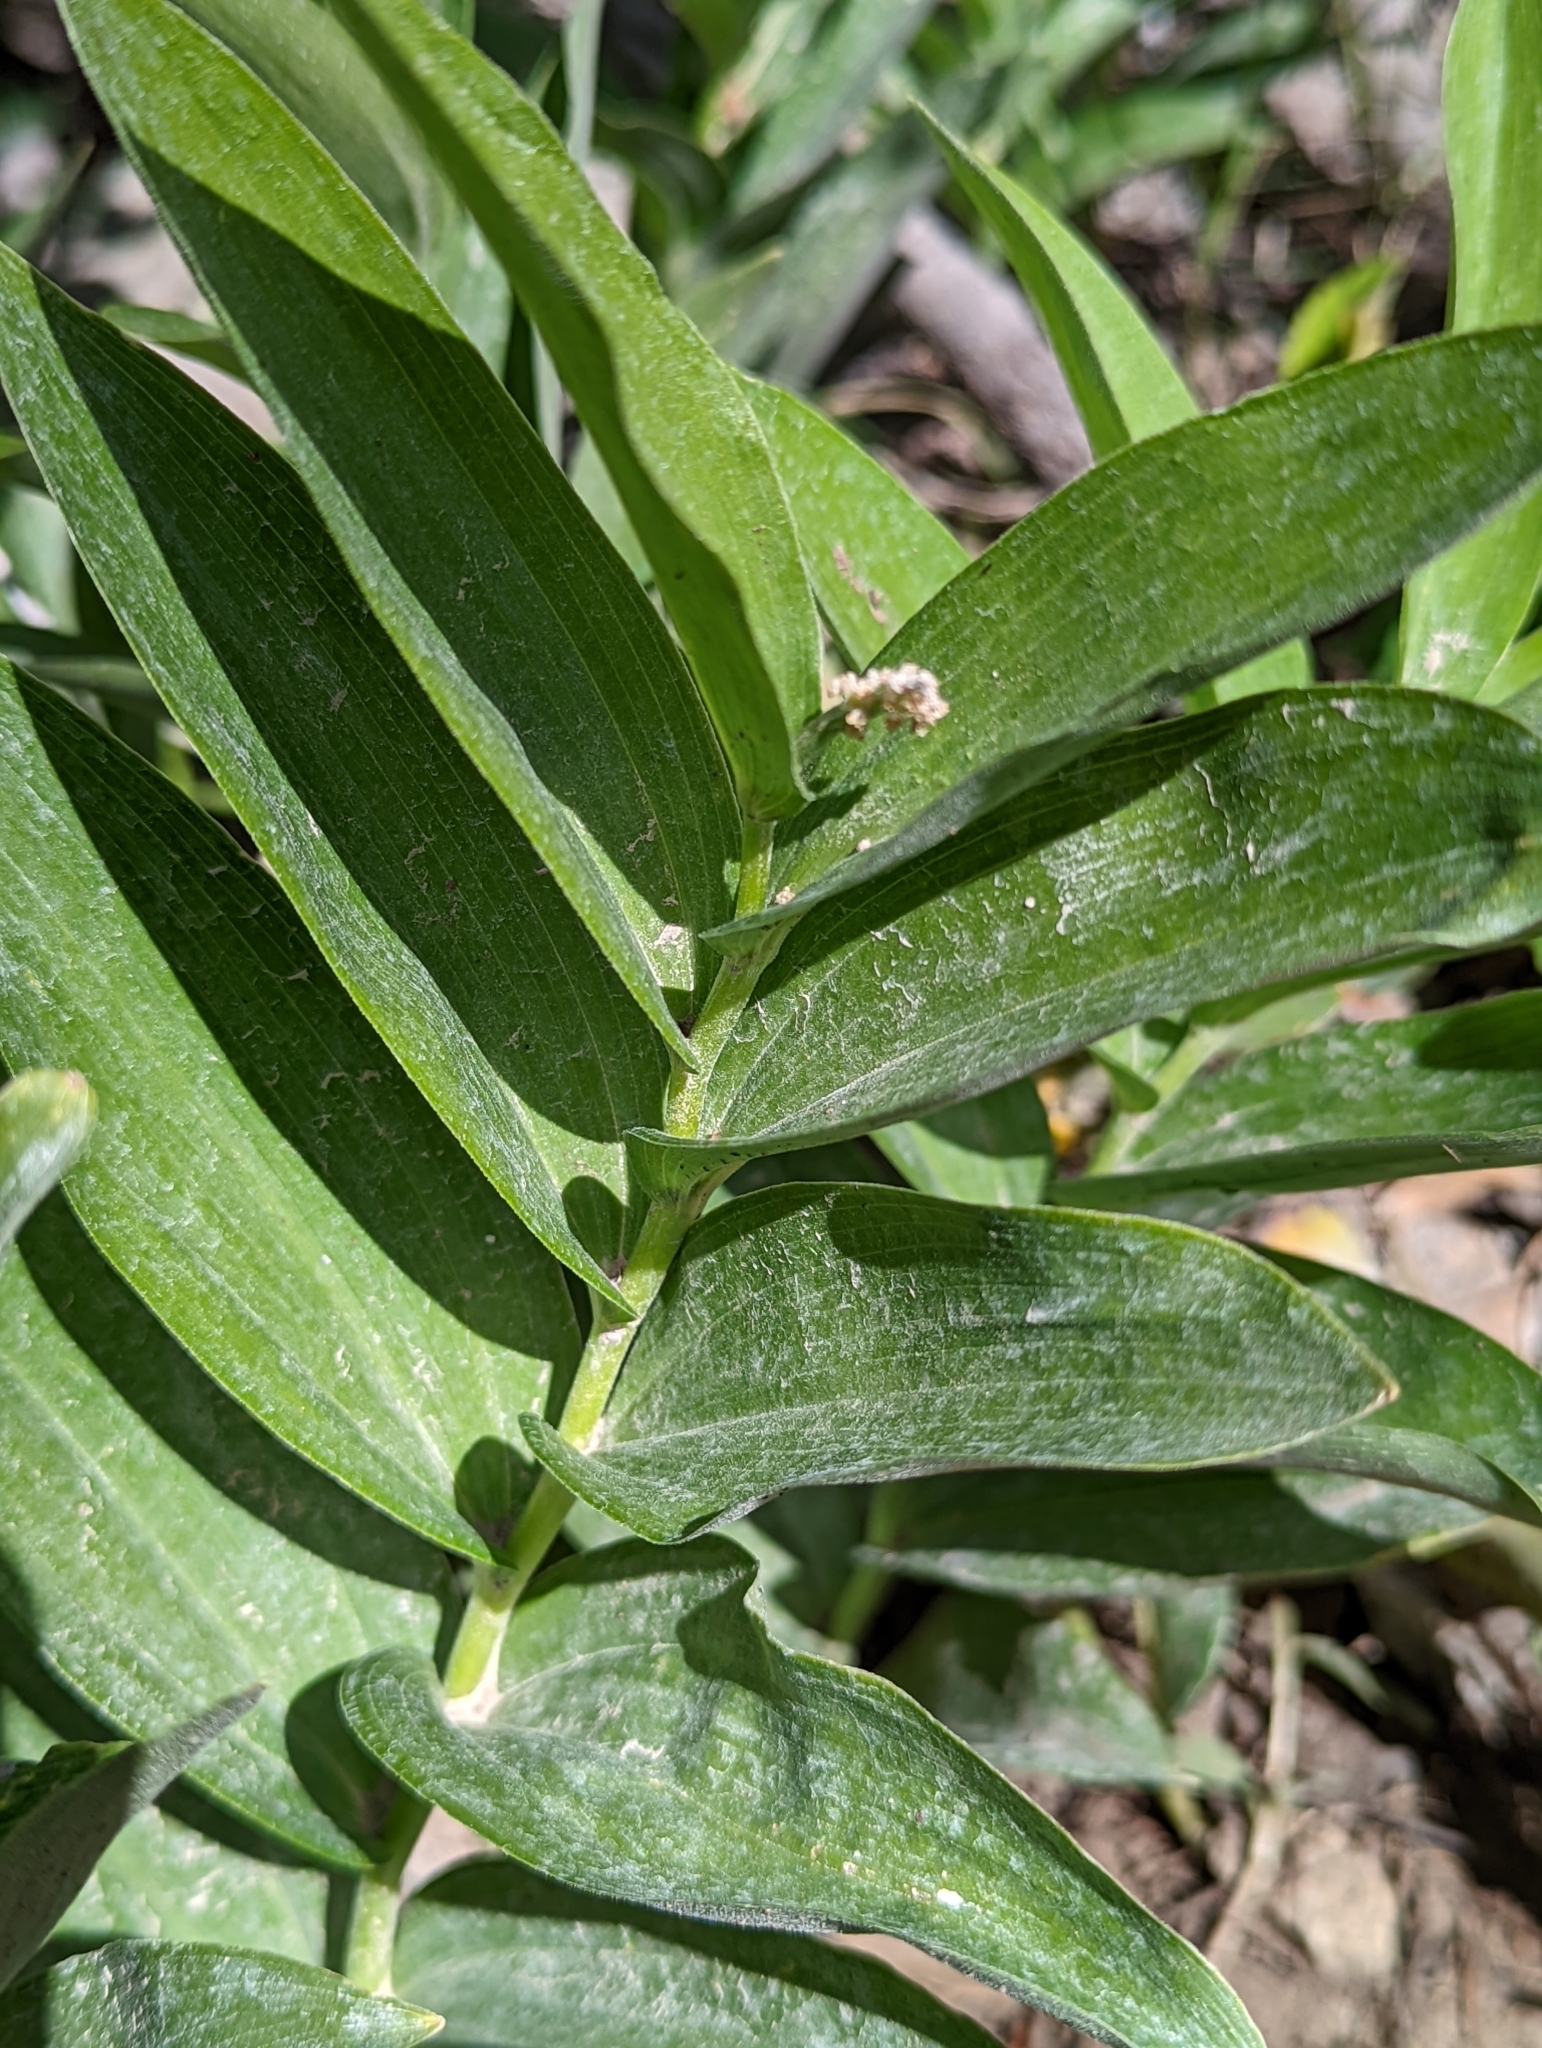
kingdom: Plantae
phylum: Tracheophyta
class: Liliopsida
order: Asparagales
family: Asparagaceae
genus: Maianthemum
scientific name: Maianthemum racemosum
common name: False spikenard
